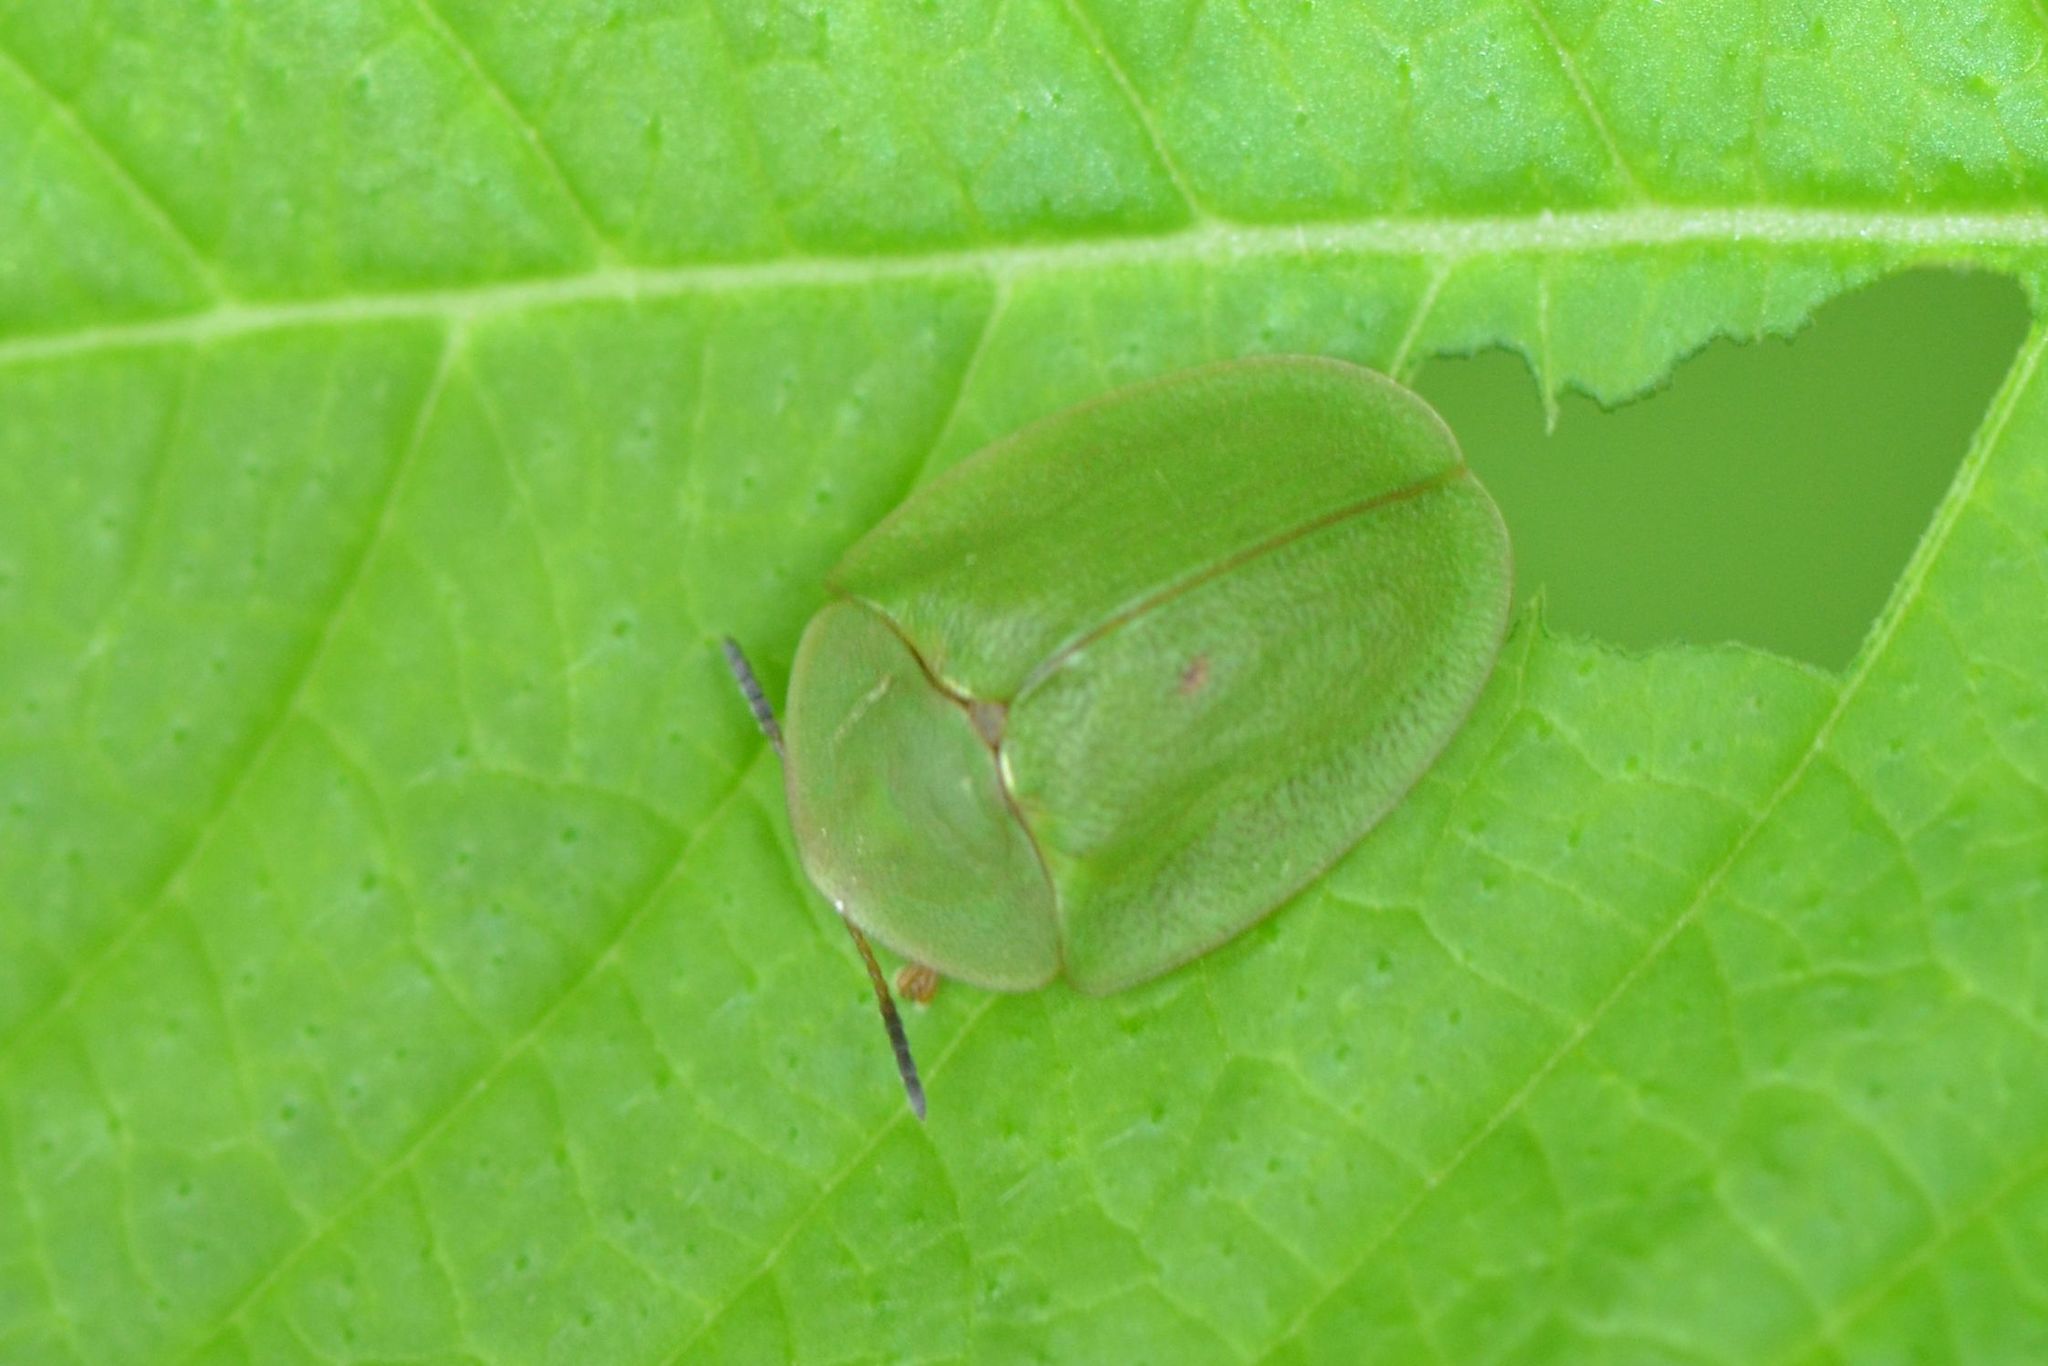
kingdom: Animalia
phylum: Arthropoda
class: Insecta
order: Coleoptera
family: Chrysomelidae
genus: Cassida
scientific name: Cassida viridis
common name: Green tortoise beetle
